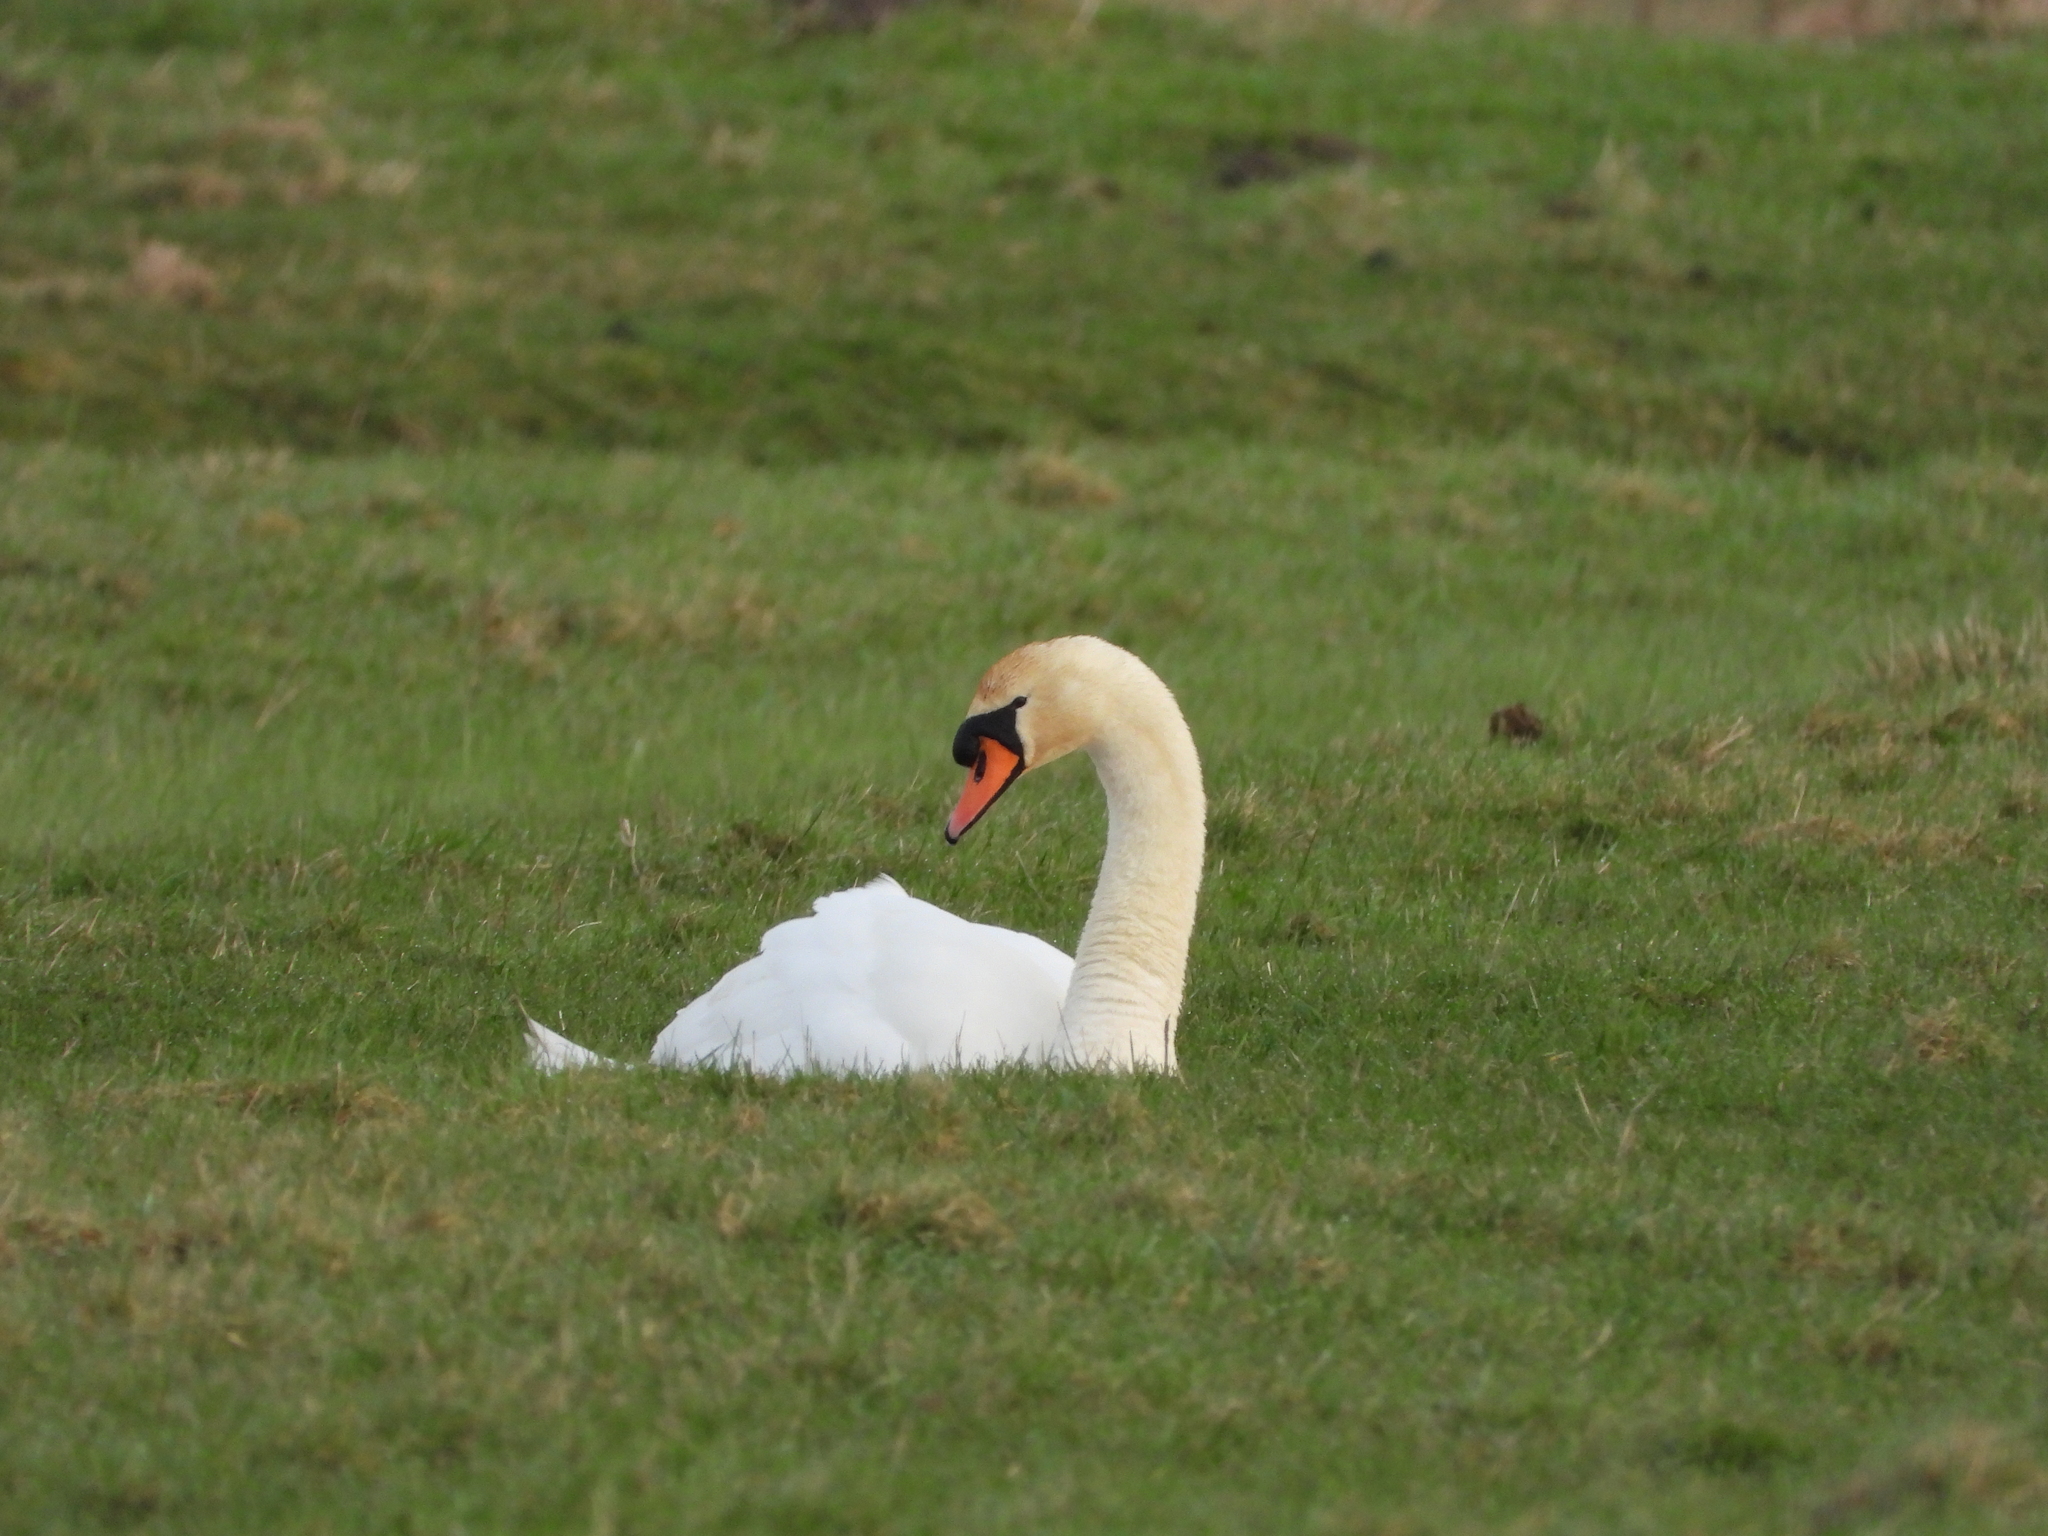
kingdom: Animalia
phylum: Chordata
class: Aves
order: Anseriformes
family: Anatidae
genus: Cygnus
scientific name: Cygnus olor
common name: Mute swan
